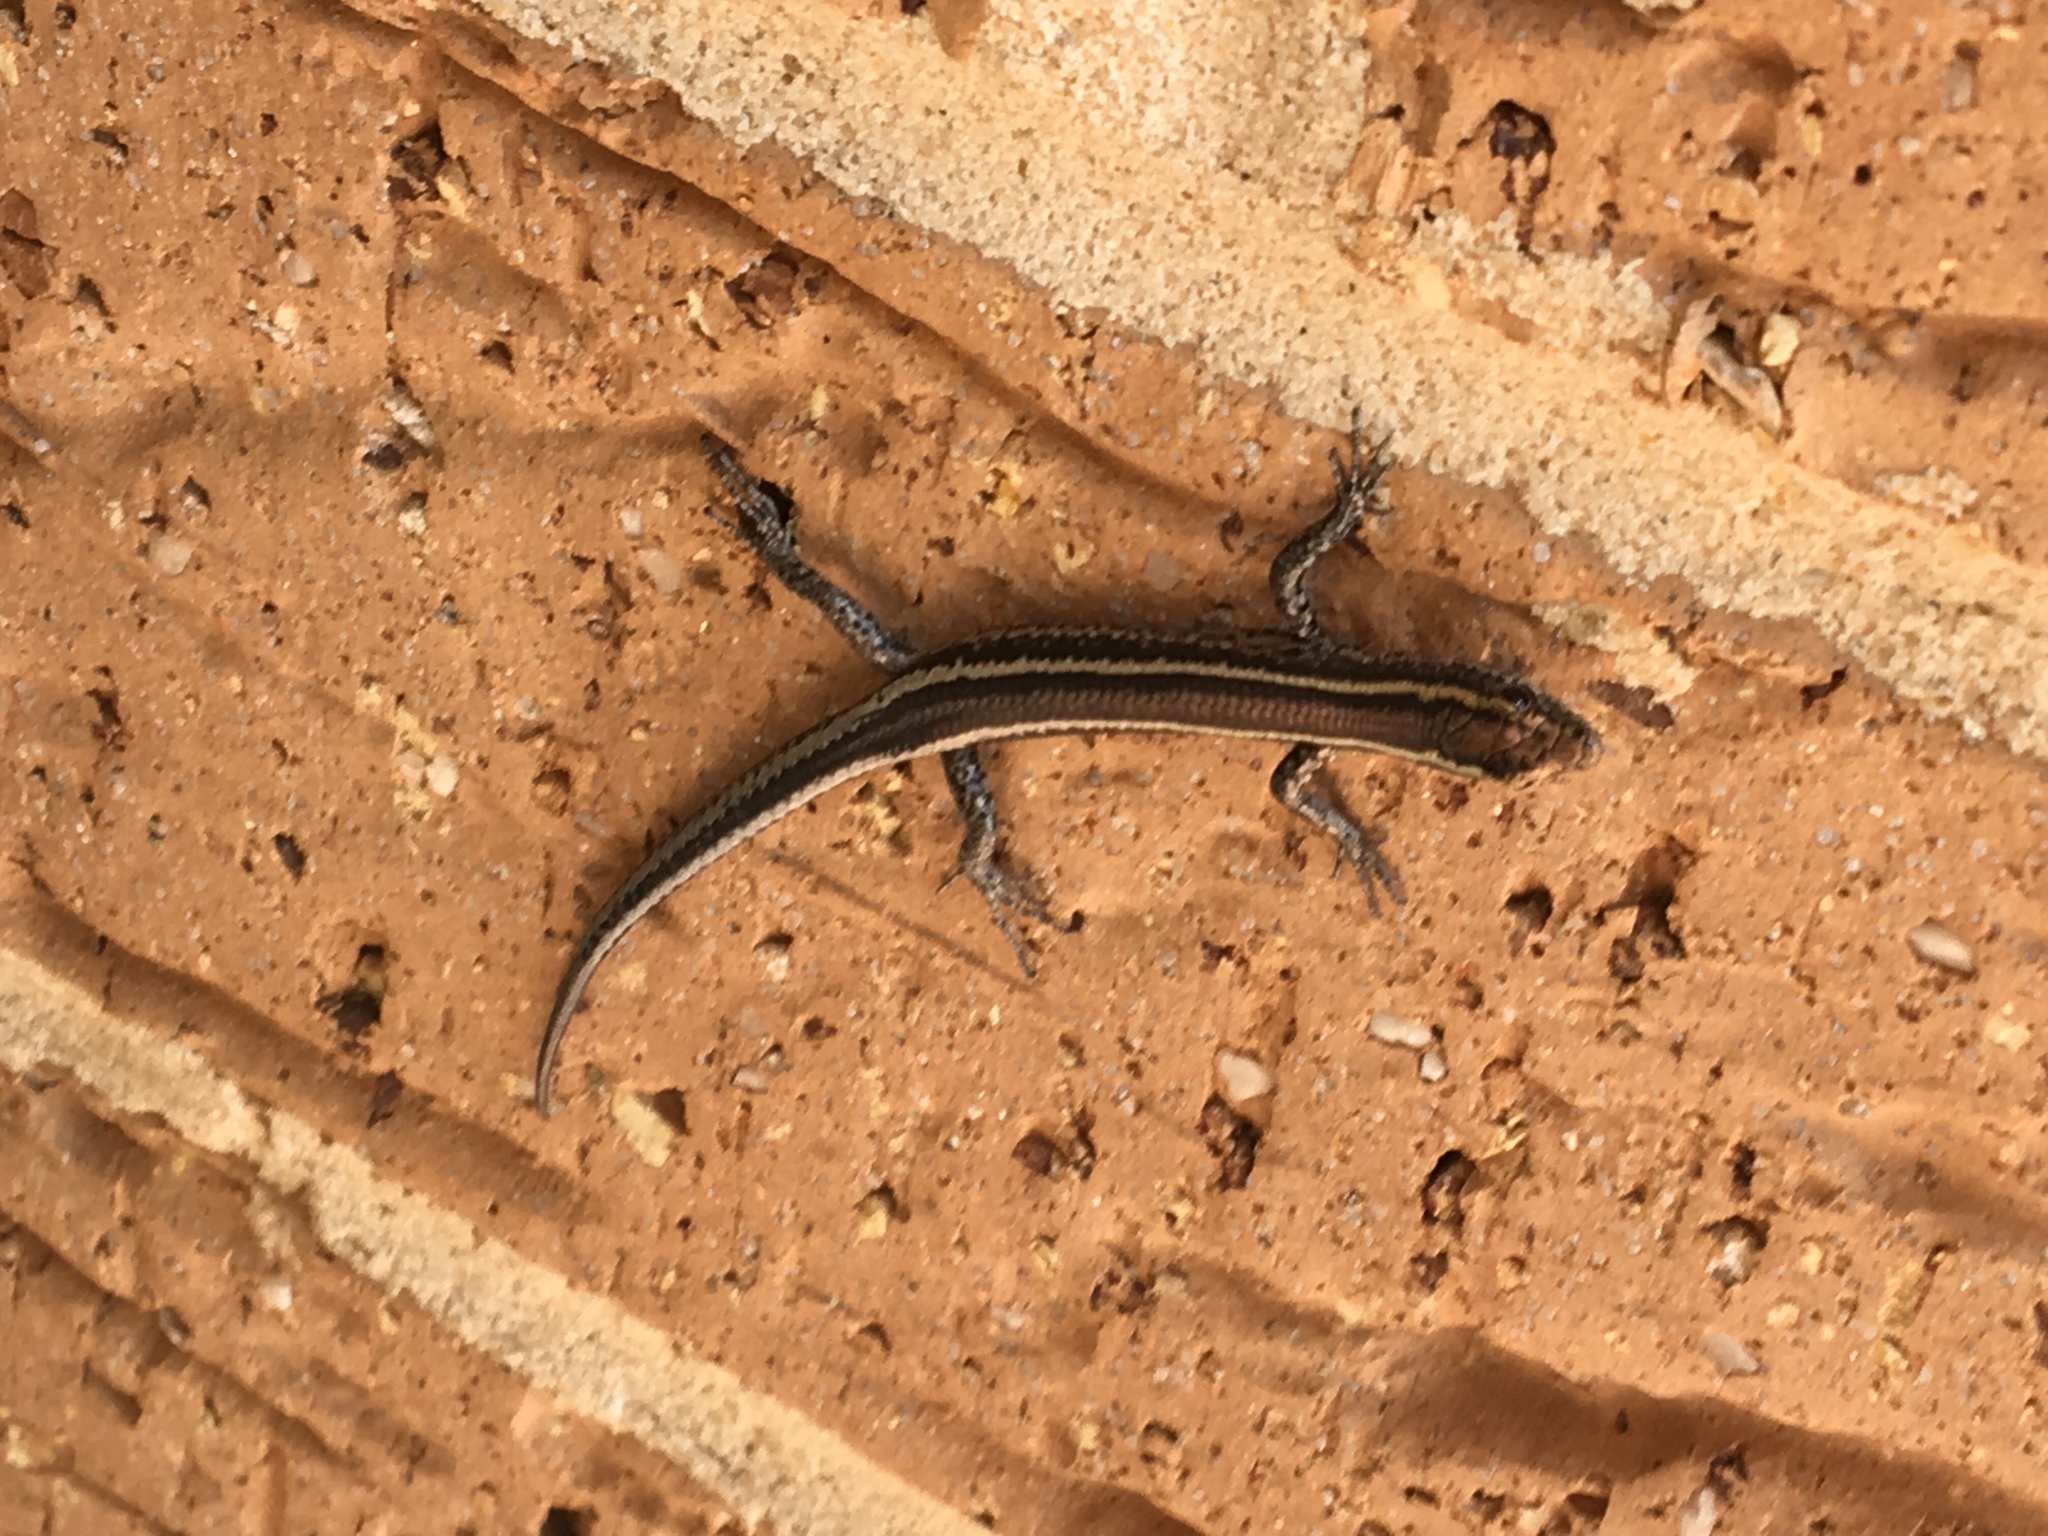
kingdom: Animalia
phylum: Chordata
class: Squamata
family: Scincidae
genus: Cryptoblepharus
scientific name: Cryptoblepharus pulcher
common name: Elegant snake-eyed skink
